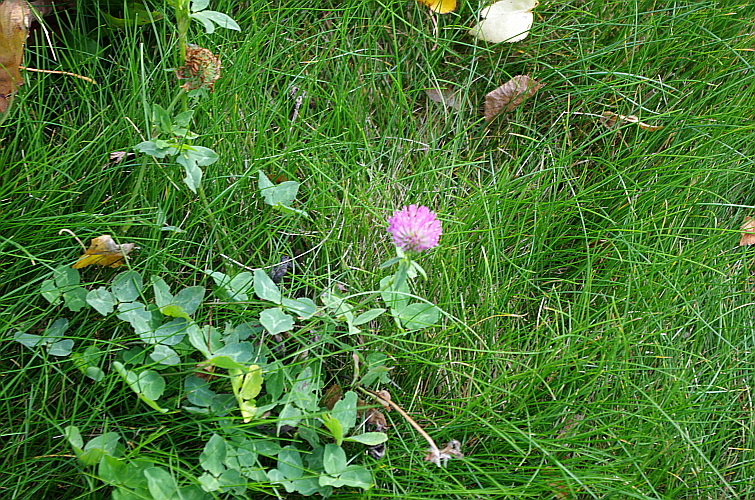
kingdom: Plantae
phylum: Tracheophyta
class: Magnoliopsida
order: Fabales
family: Fabaceae
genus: Trifolium
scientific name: Trifolium pratense
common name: Red clover
